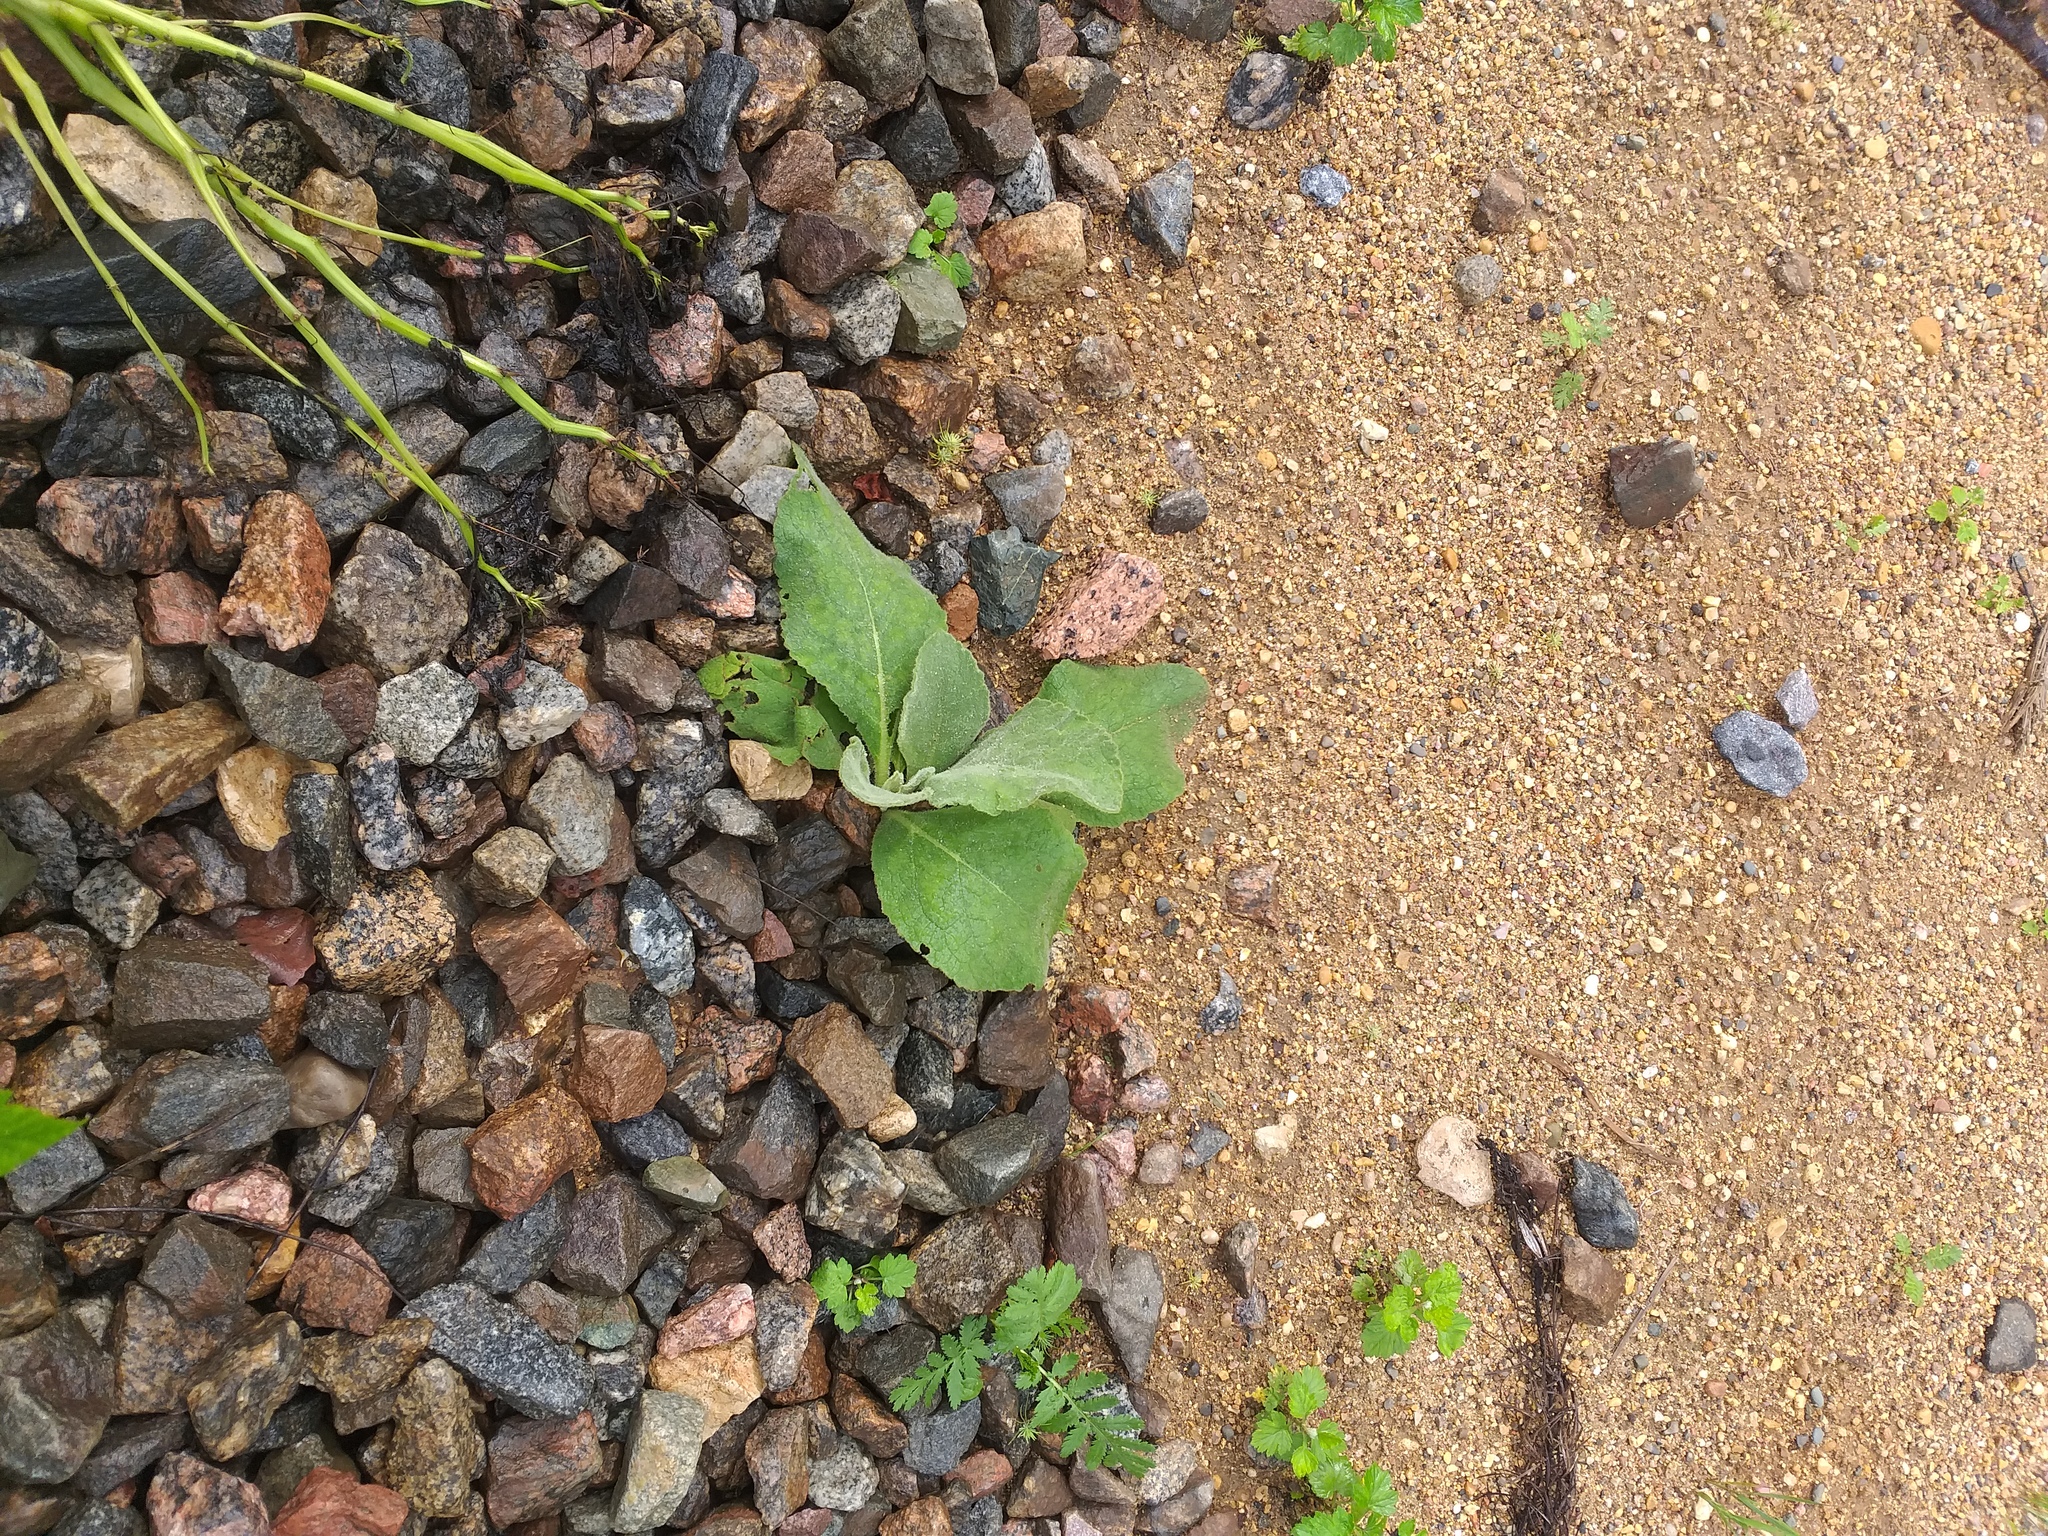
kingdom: Plantae
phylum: Tracheophyta
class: Magnoliopsida
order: Lamiales
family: Scrophulariaceae
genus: Verbascum
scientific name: Verbascum thapsus
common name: Common mullein
